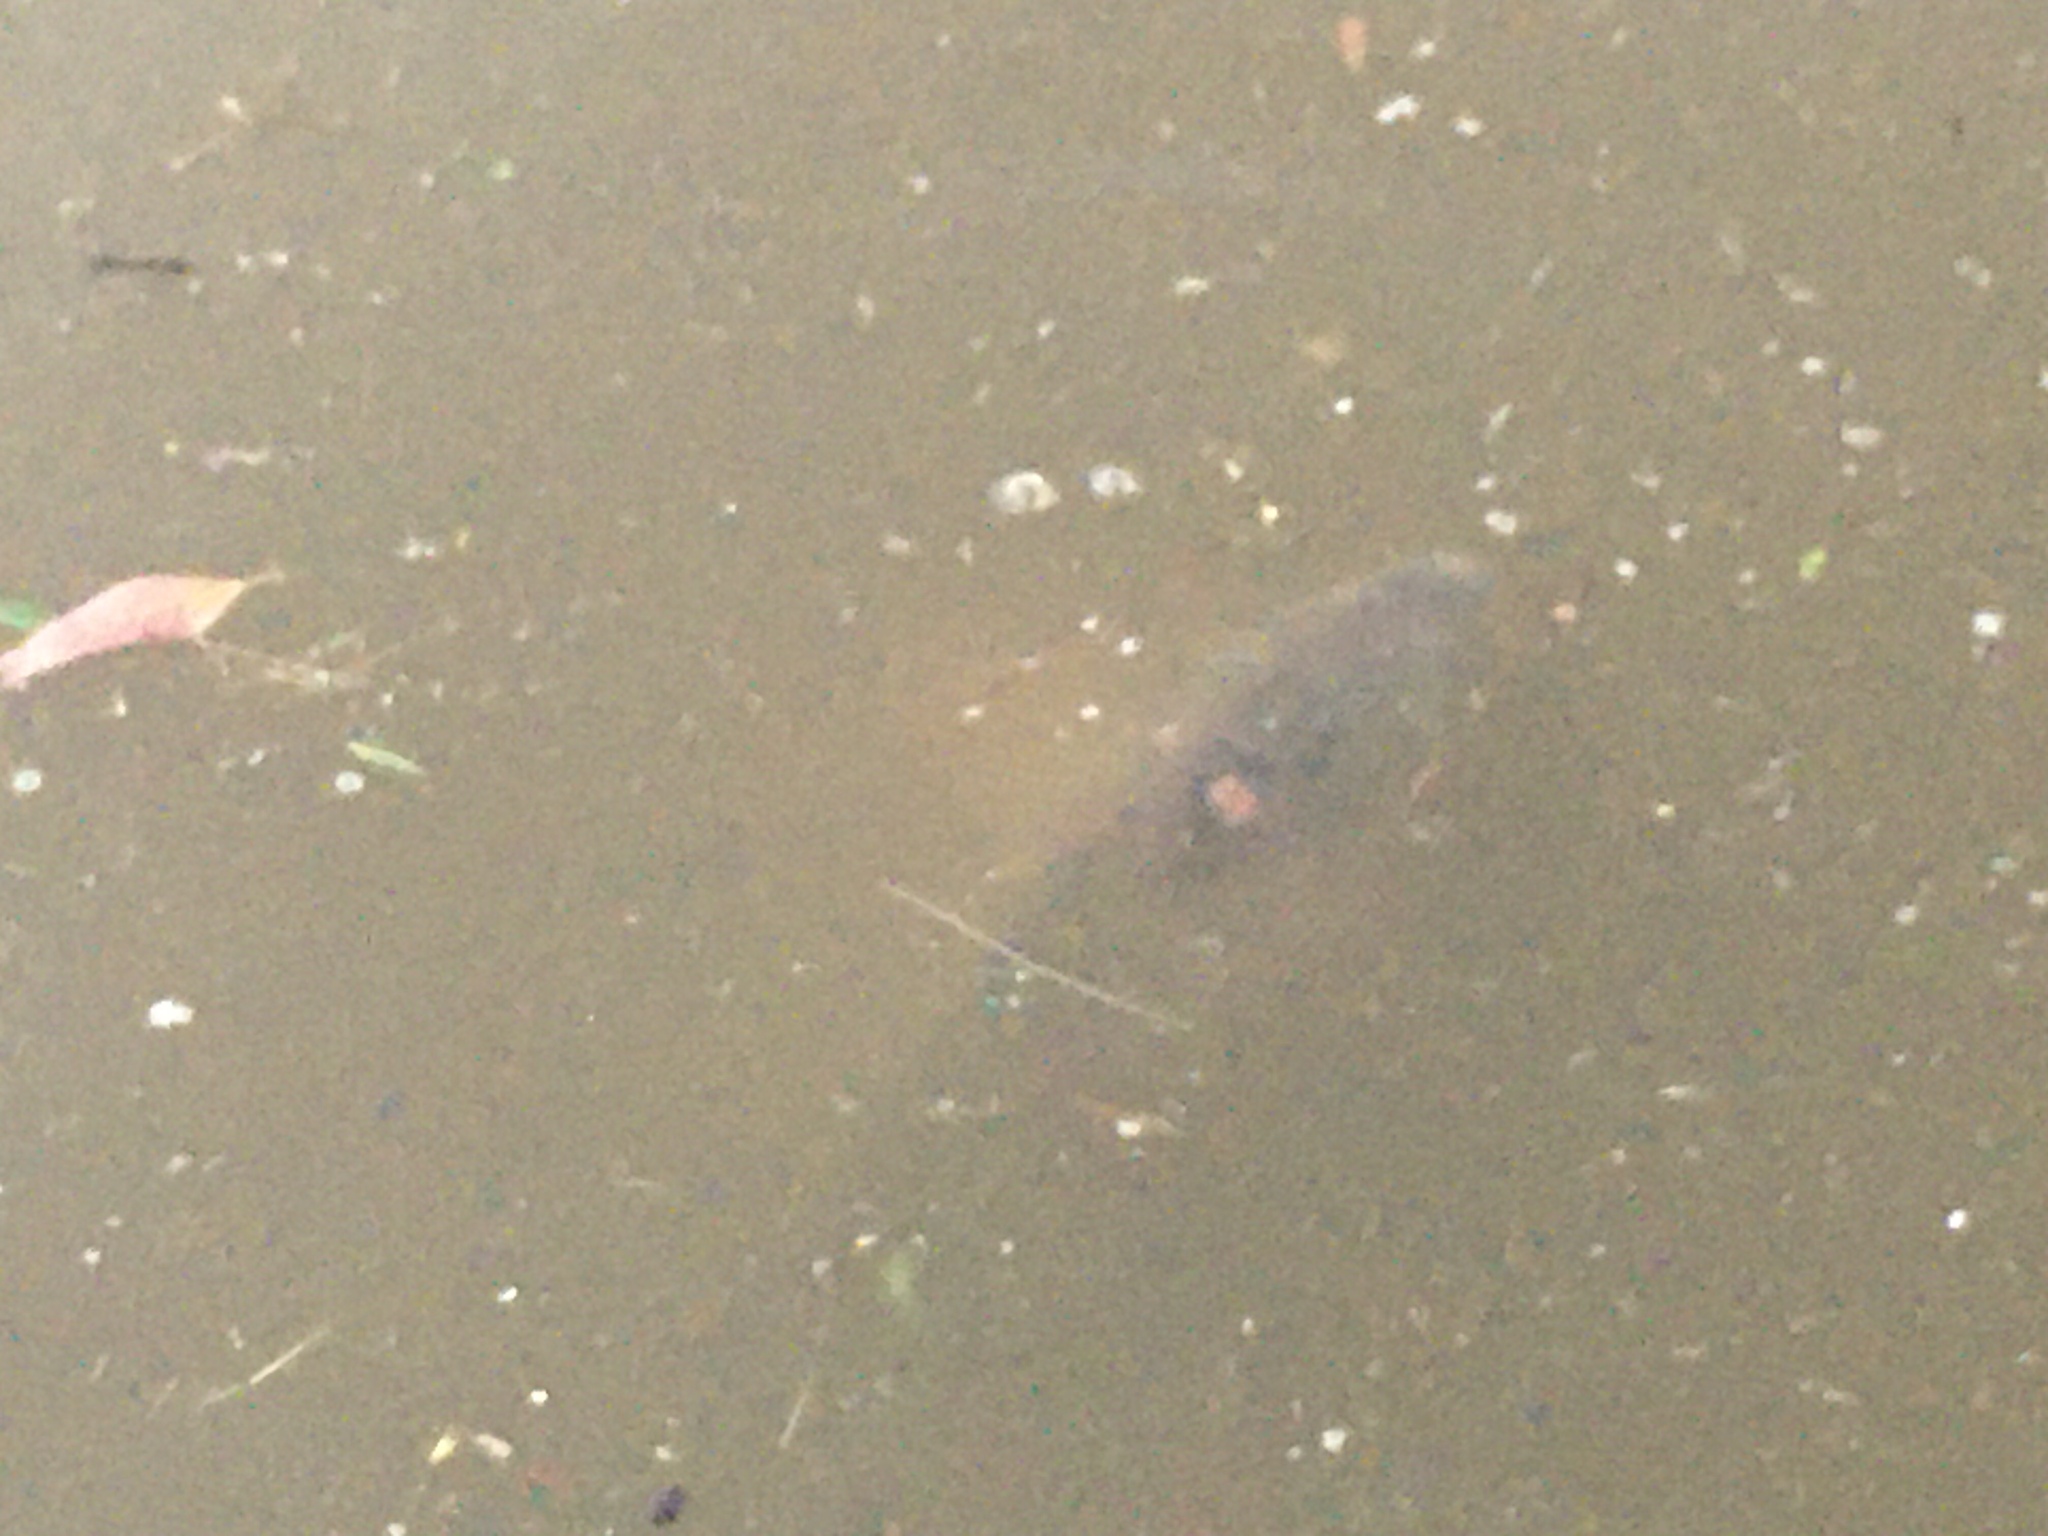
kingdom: Animalia
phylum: Chordata
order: Cypriniformes
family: Cyprinidae
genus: Cyprinus
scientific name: Cyprinus carpio
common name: Common carp
